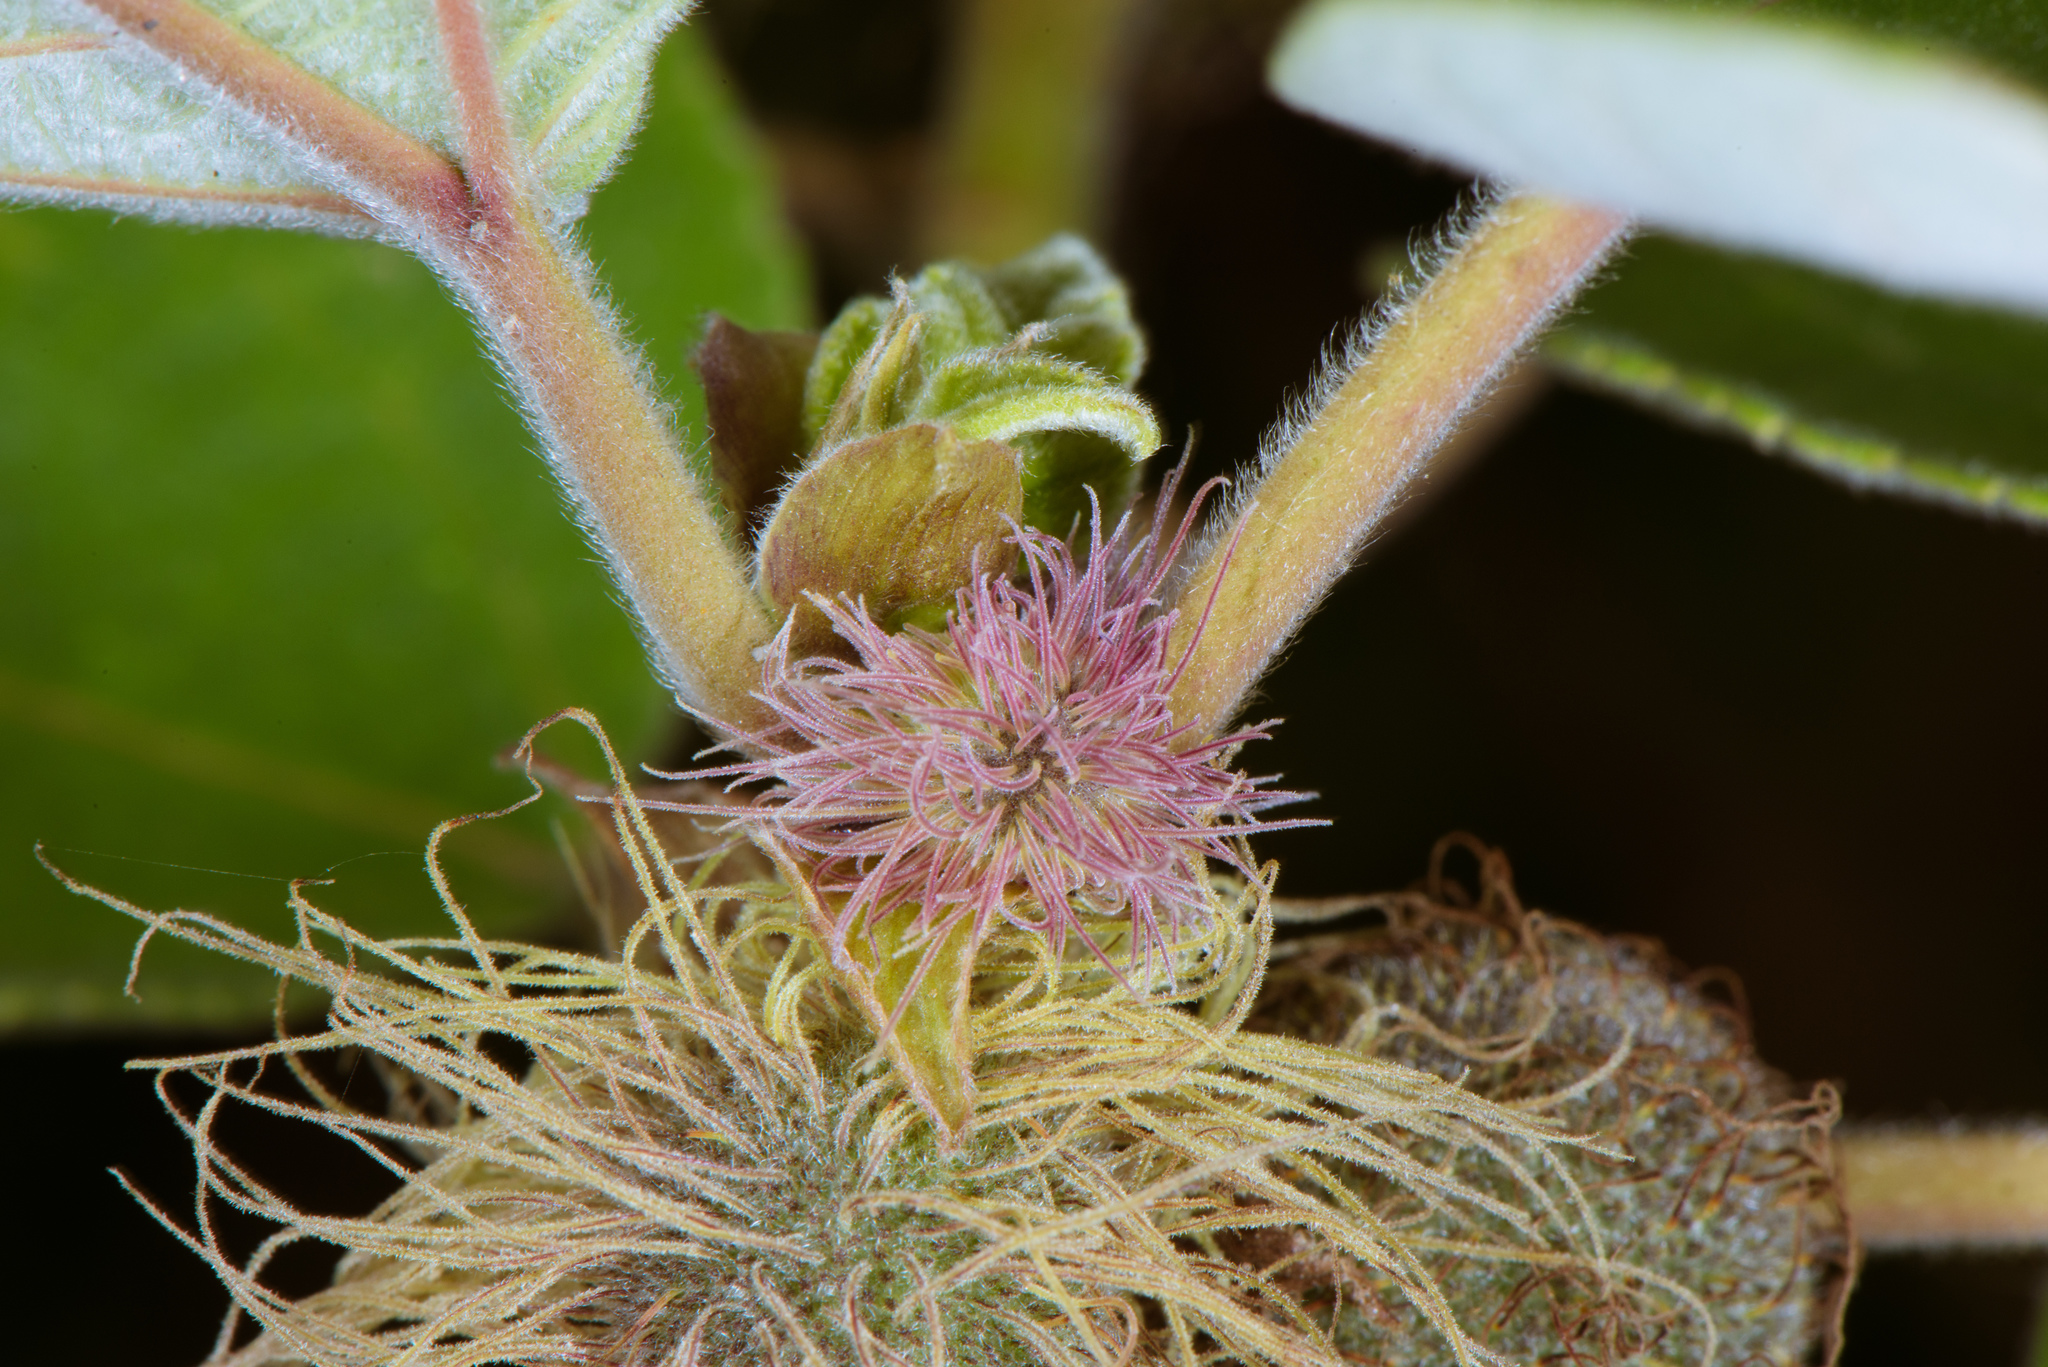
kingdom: Plantae
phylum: Tracheophyta
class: Magnoliopsida
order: Rosales
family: Moraceae
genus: Broussonetia
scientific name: Broussonetia papyrifera
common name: Paper mulberry
